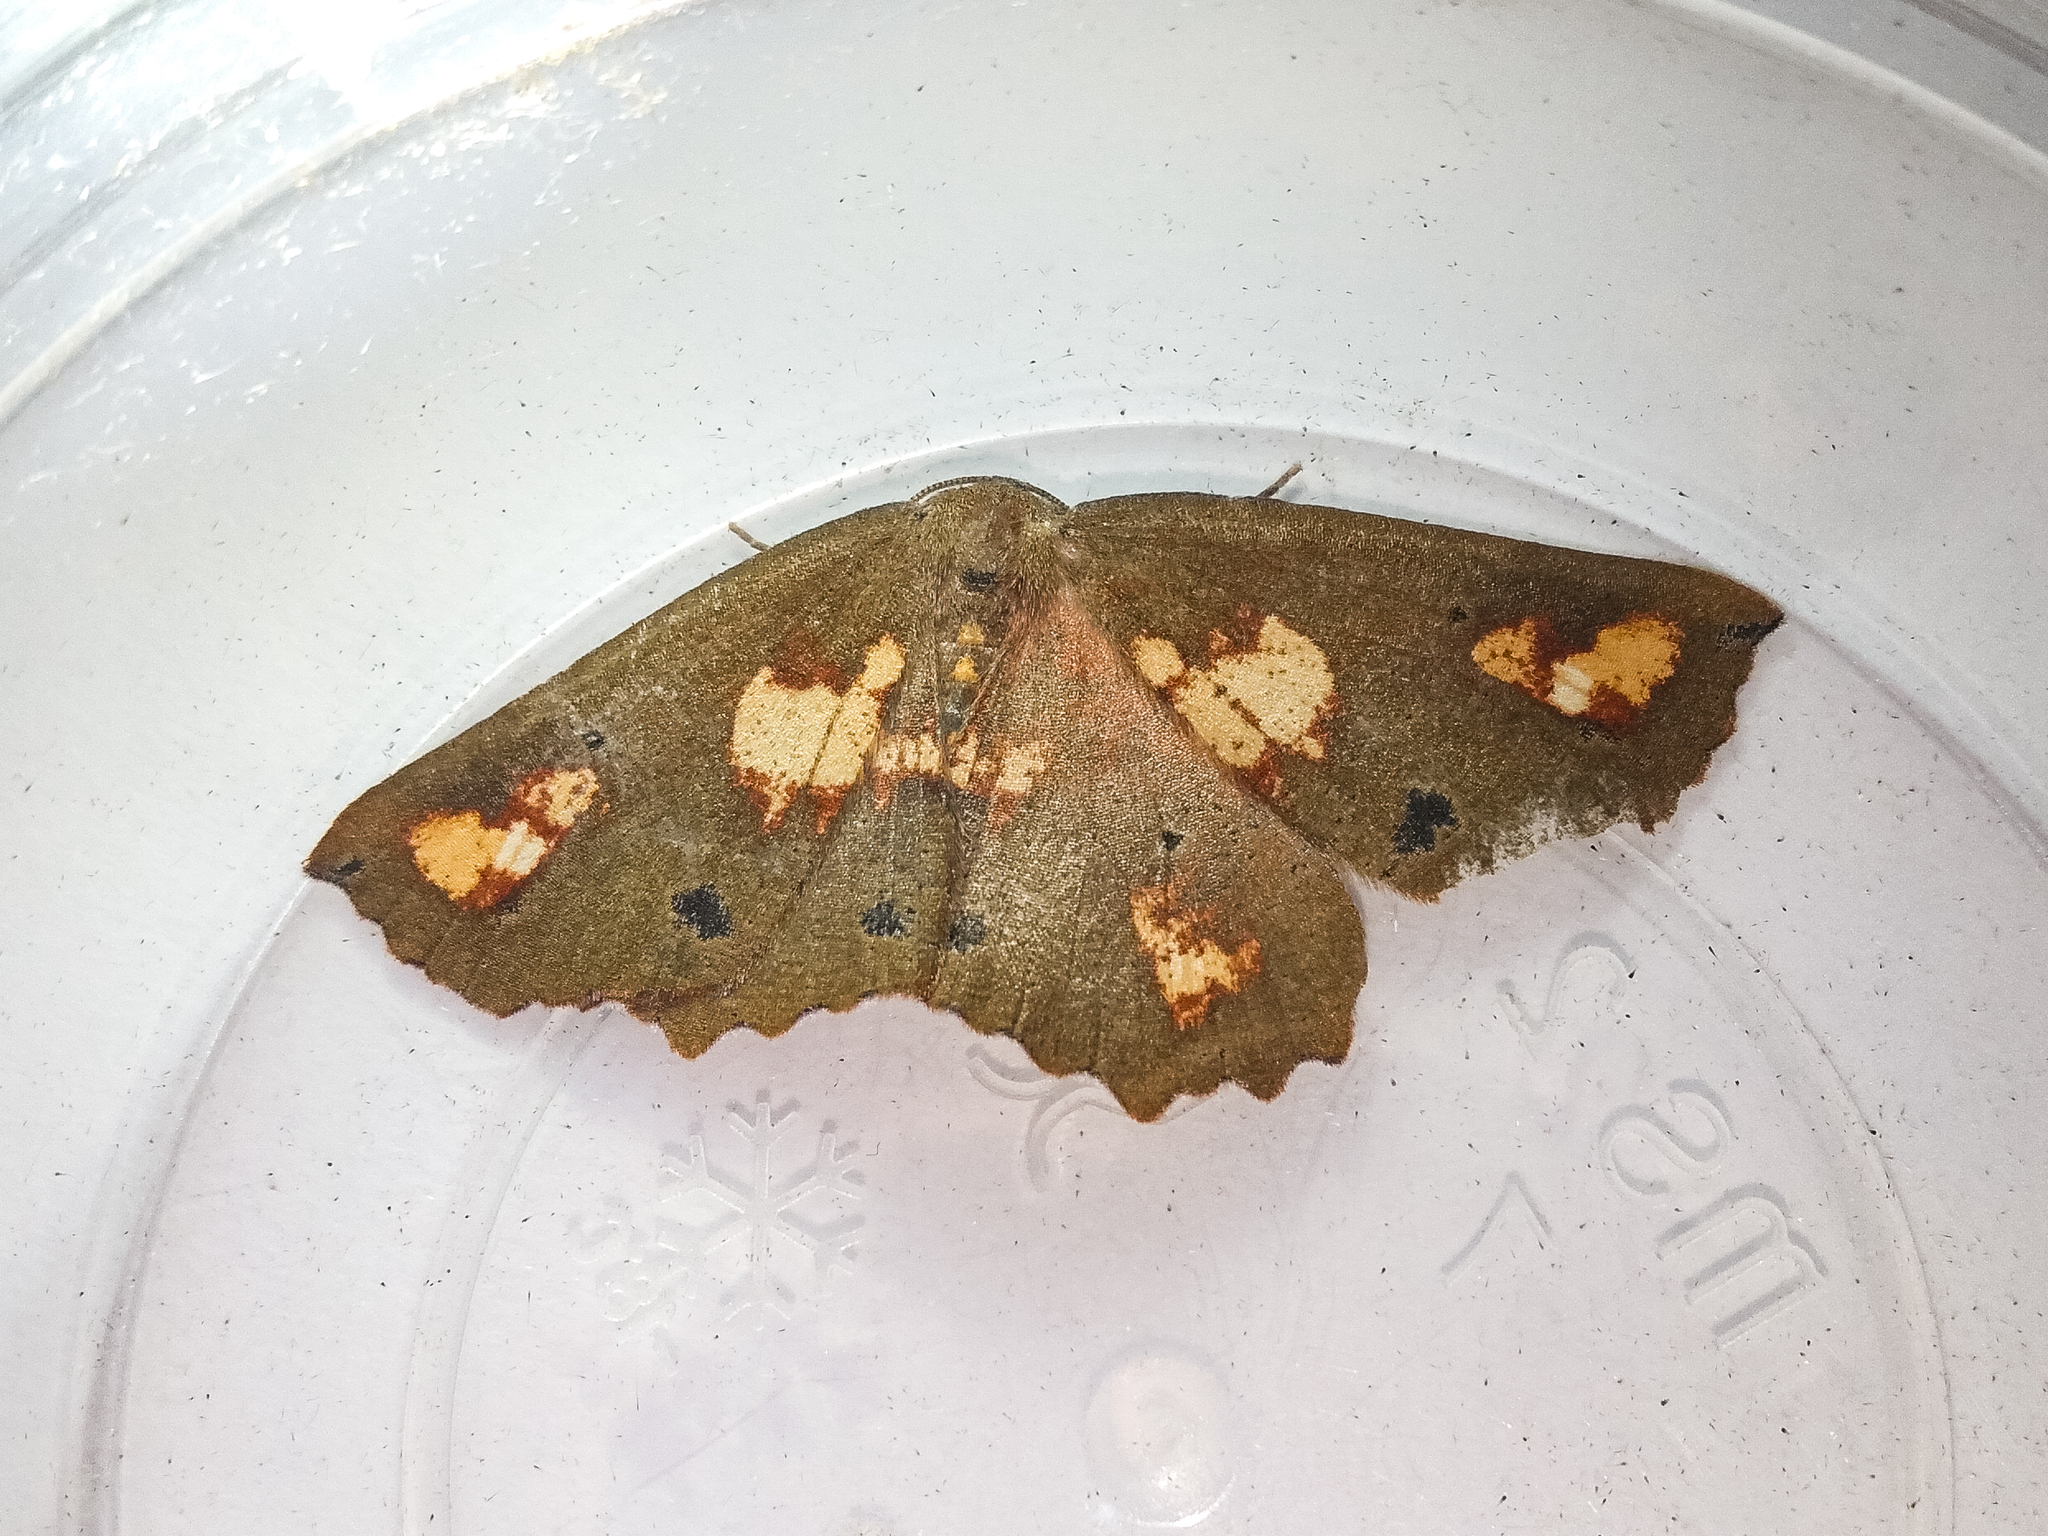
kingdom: Animalia
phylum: Arthropoda
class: Insecta
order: Lepidoptera
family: Geometridae
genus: Xyridacma
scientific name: Xyridacma ustaria
